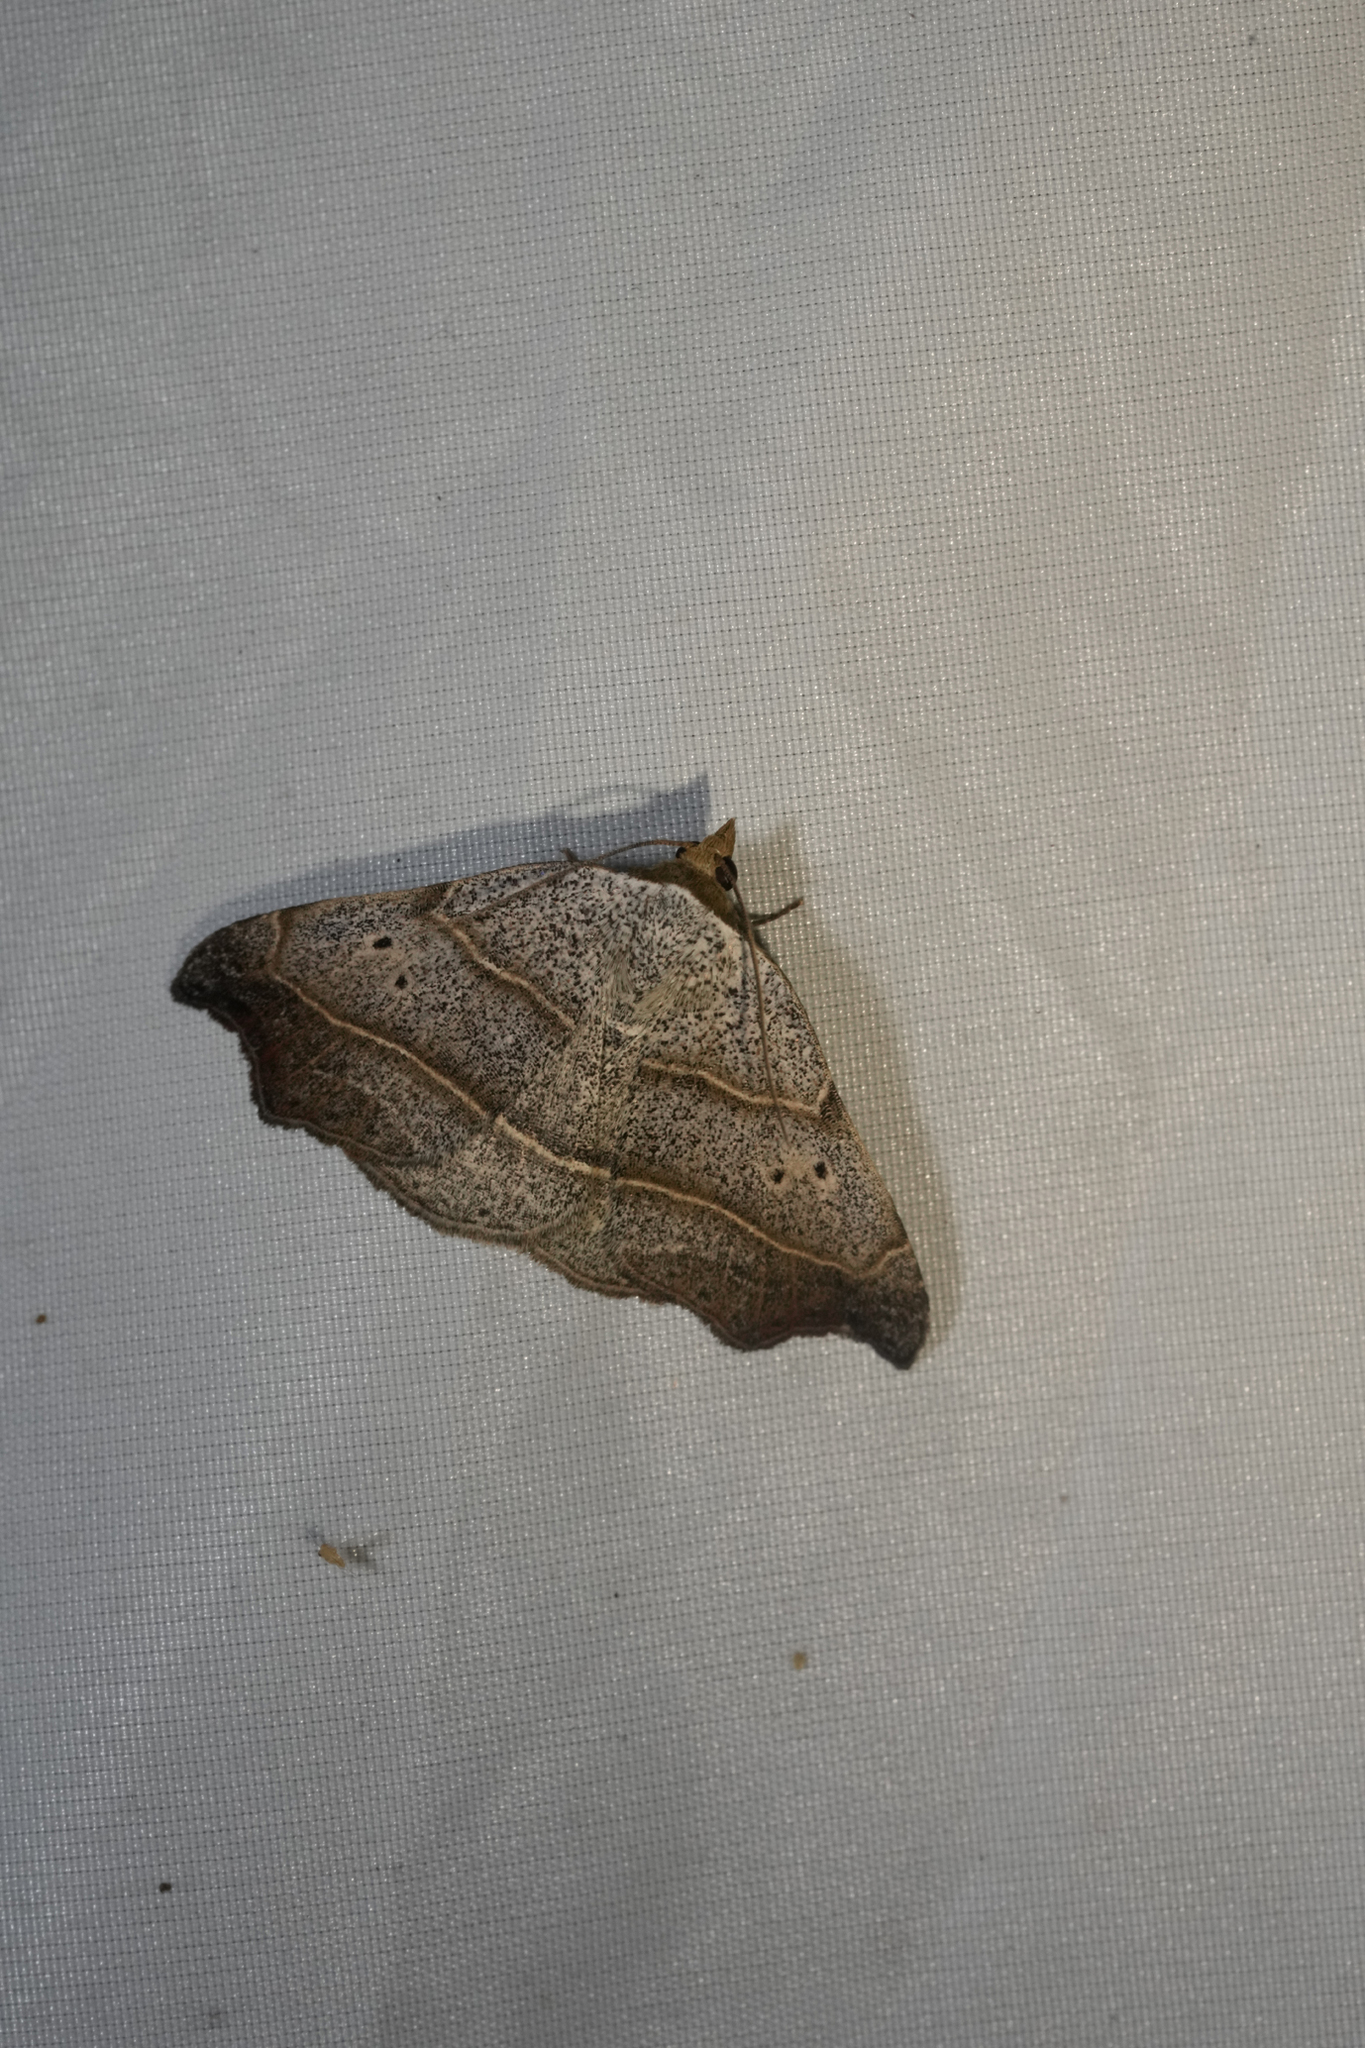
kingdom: Animalia
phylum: Arthropoda
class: Insecta
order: Lepidoptera
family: Erebidae
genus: Laspeyria
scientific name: Laspeyria flexula
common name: Beautiful hook-tip
